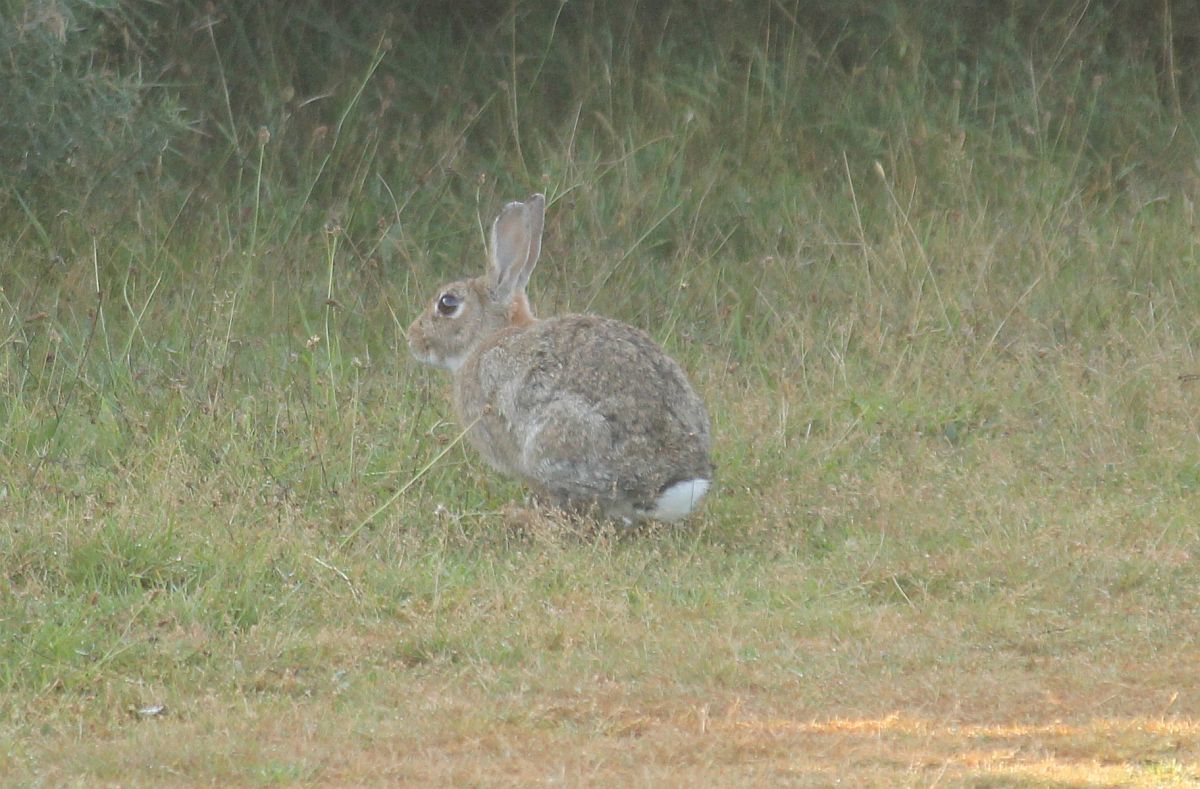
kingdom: Animalia
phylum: Chordata
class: Mammalia
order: Lagomorpha
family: Leporidae
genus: Oryctolagus
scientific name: Oryctolagus cuniculus
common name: European rabbit
